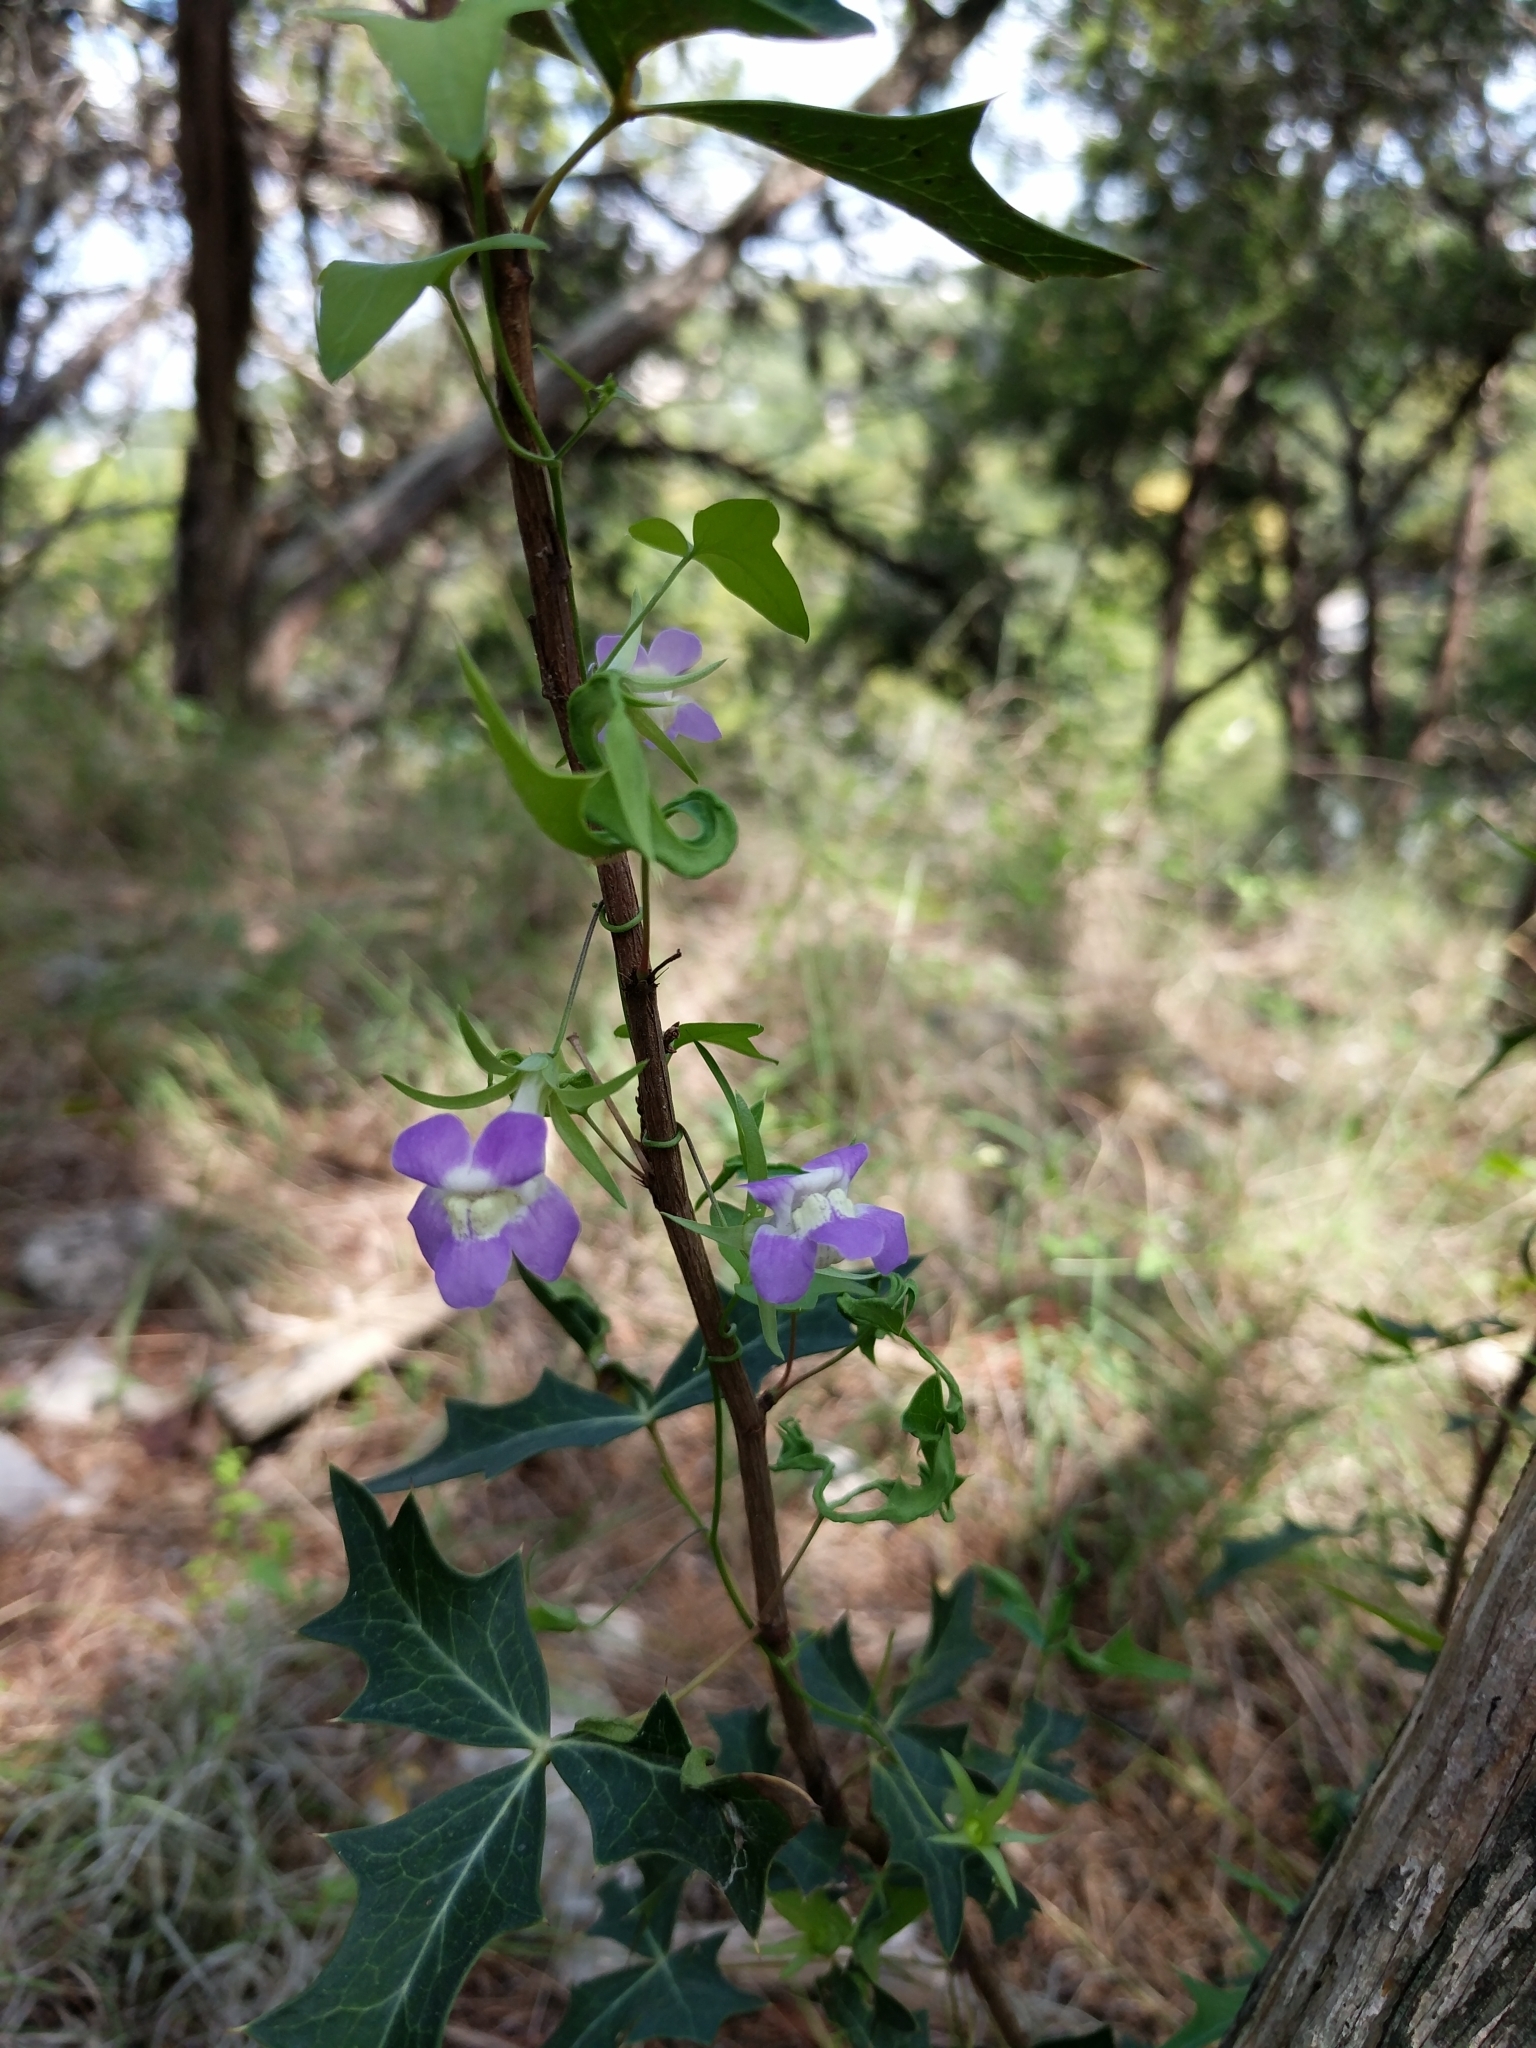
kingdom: Plantae
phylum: Tracheophyta
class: Magnoliopsida
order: Lamiales
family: Plantaginaceae
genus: Maurandella
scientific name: Maurandella antirrhiniflora
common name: Violet twining-snapdragon
